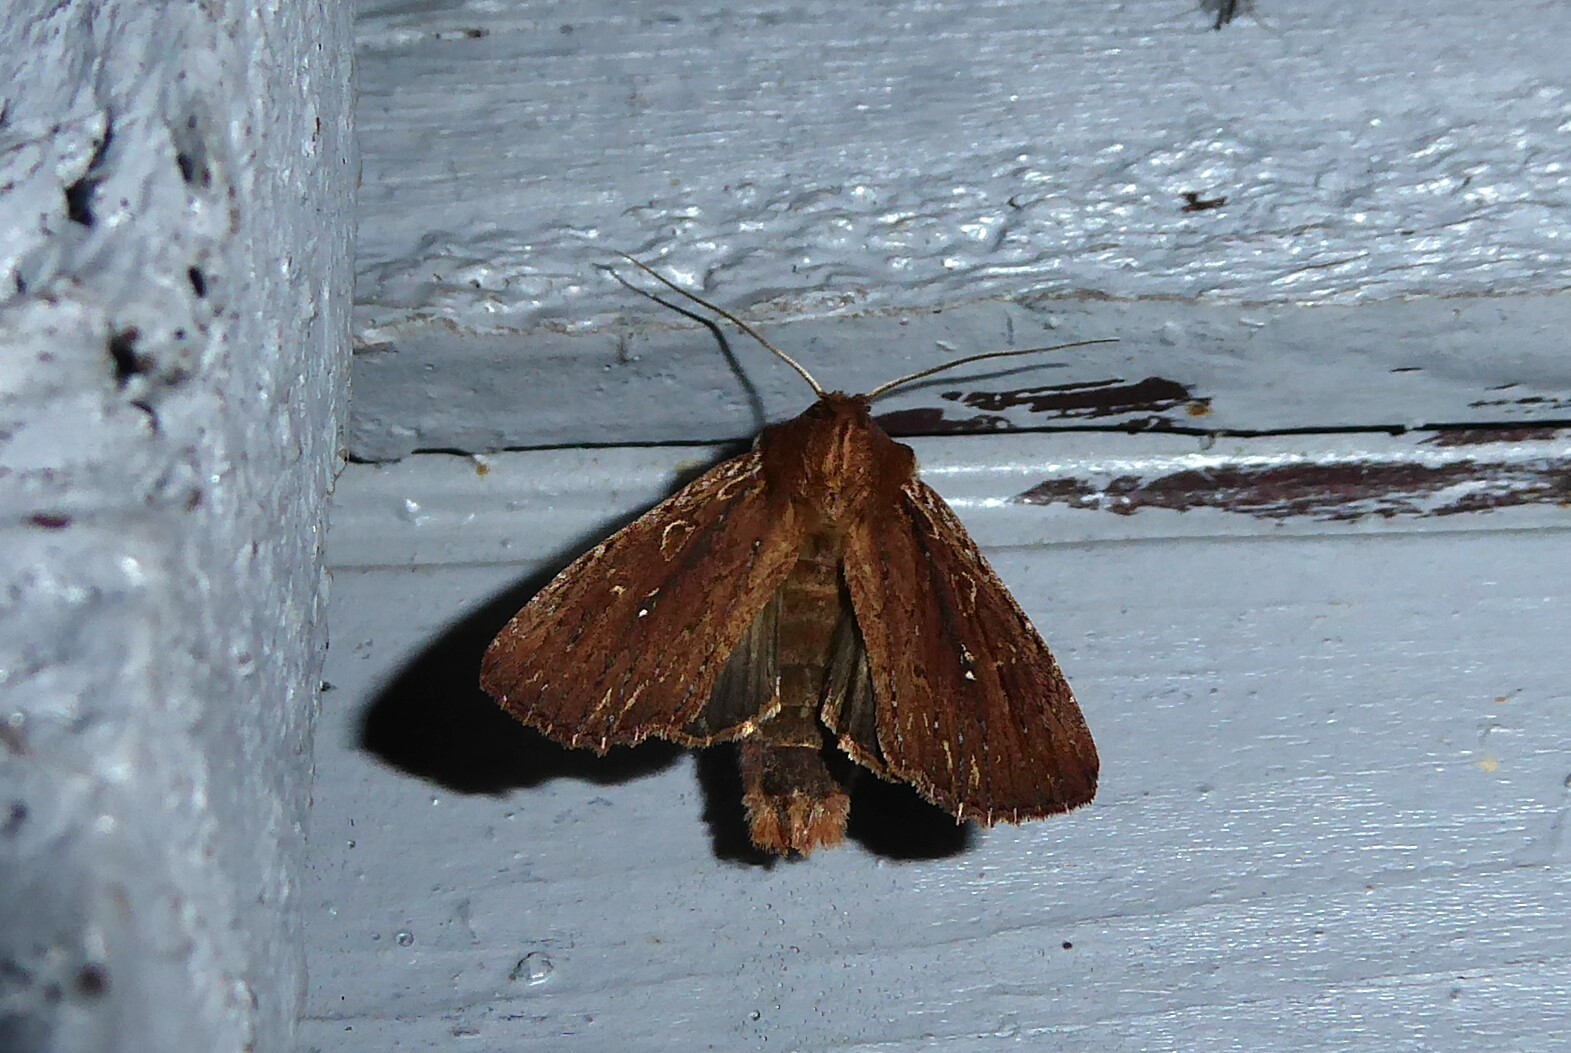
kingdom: Animalia
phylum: Arthropoda
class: Insecta
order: Lepidoptera
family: Noctuidae
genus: Ichneutica
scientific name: Ichneutica
